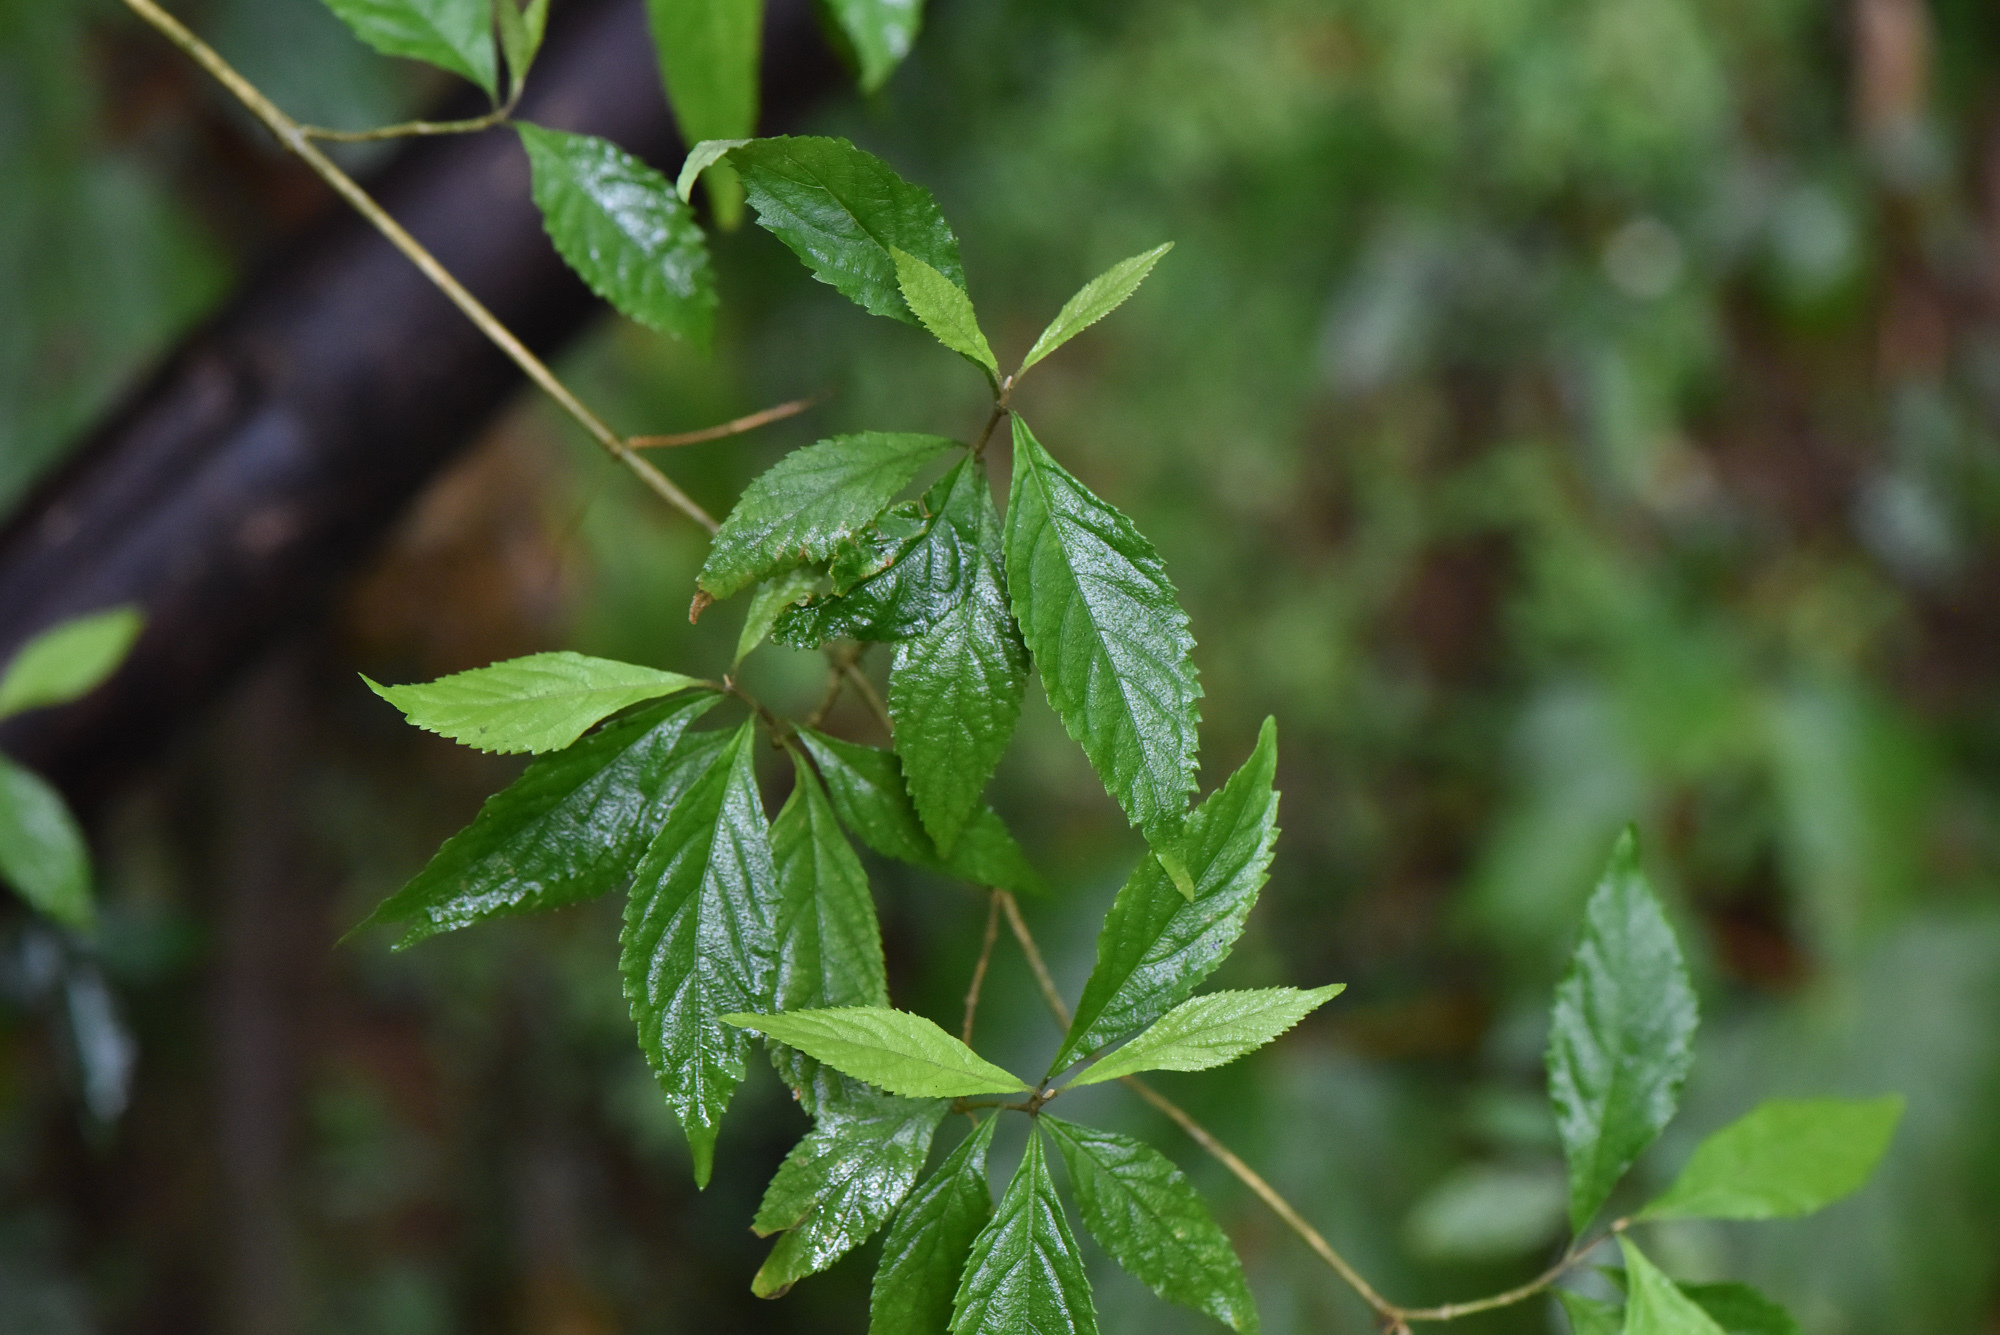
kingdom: Plantae
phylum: Tracheophyta
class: Magnoliopsida
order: Lamiales
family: Lamiaceae
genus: Callicarpa
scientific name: Callicarpa randaiensis
